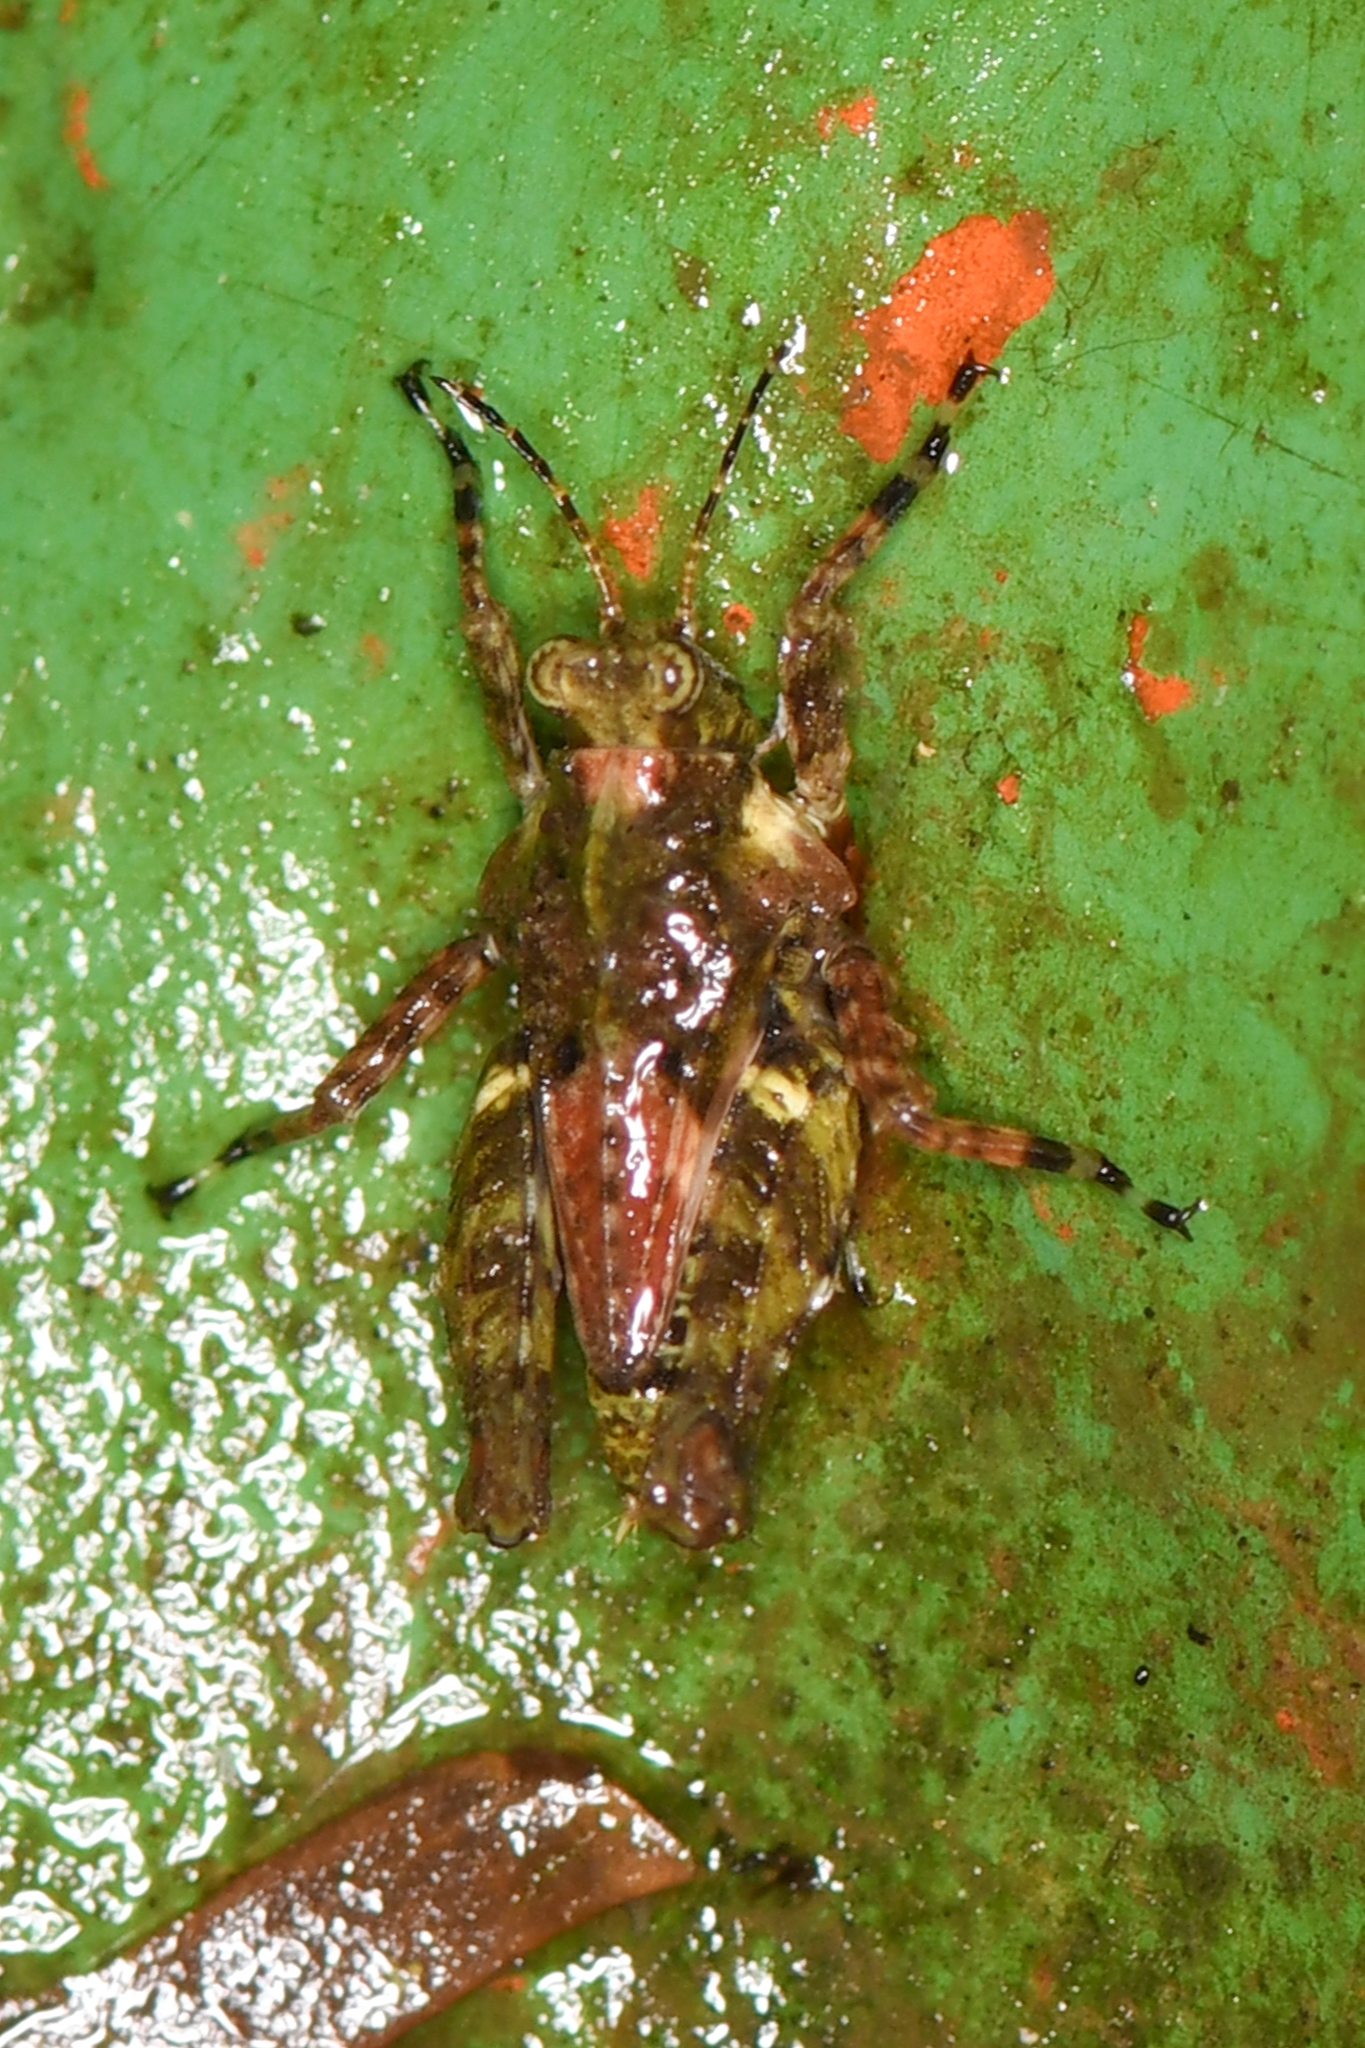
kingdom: Animalia
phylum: Arthropoda
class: Insecta
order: Orthoptera
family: Tetrigidae
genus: Chiriquia
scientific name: Chiriquia serrata
